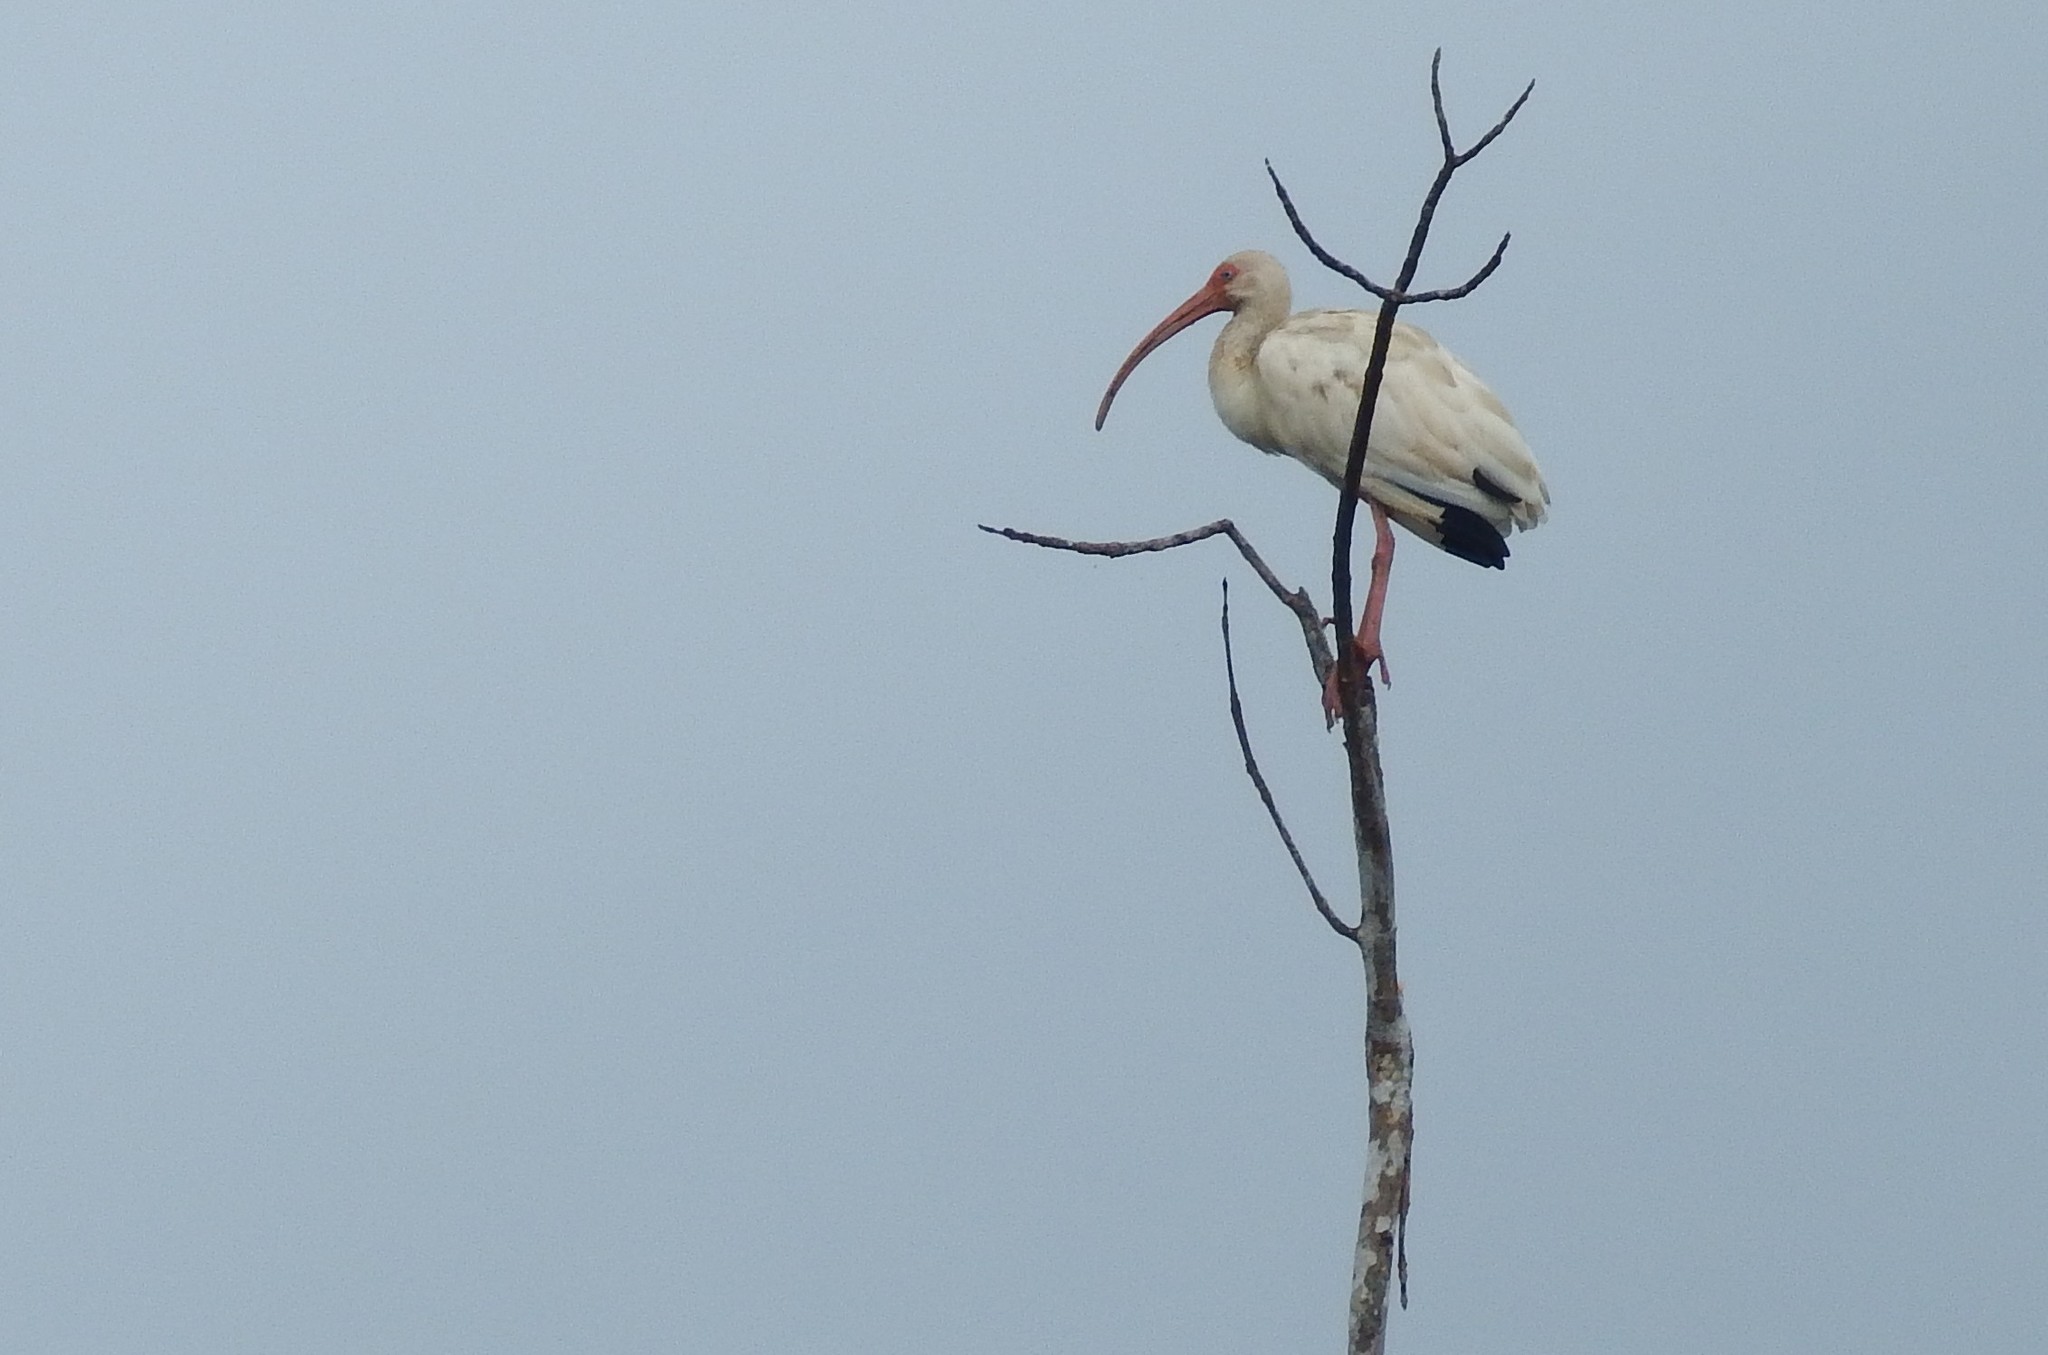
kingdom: Animalia
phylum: Chordata
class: Aves
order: Pelecaniformes
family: Threskiornithidae
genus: Eudocimus
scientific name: Eudocimus albus
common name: White ibis
